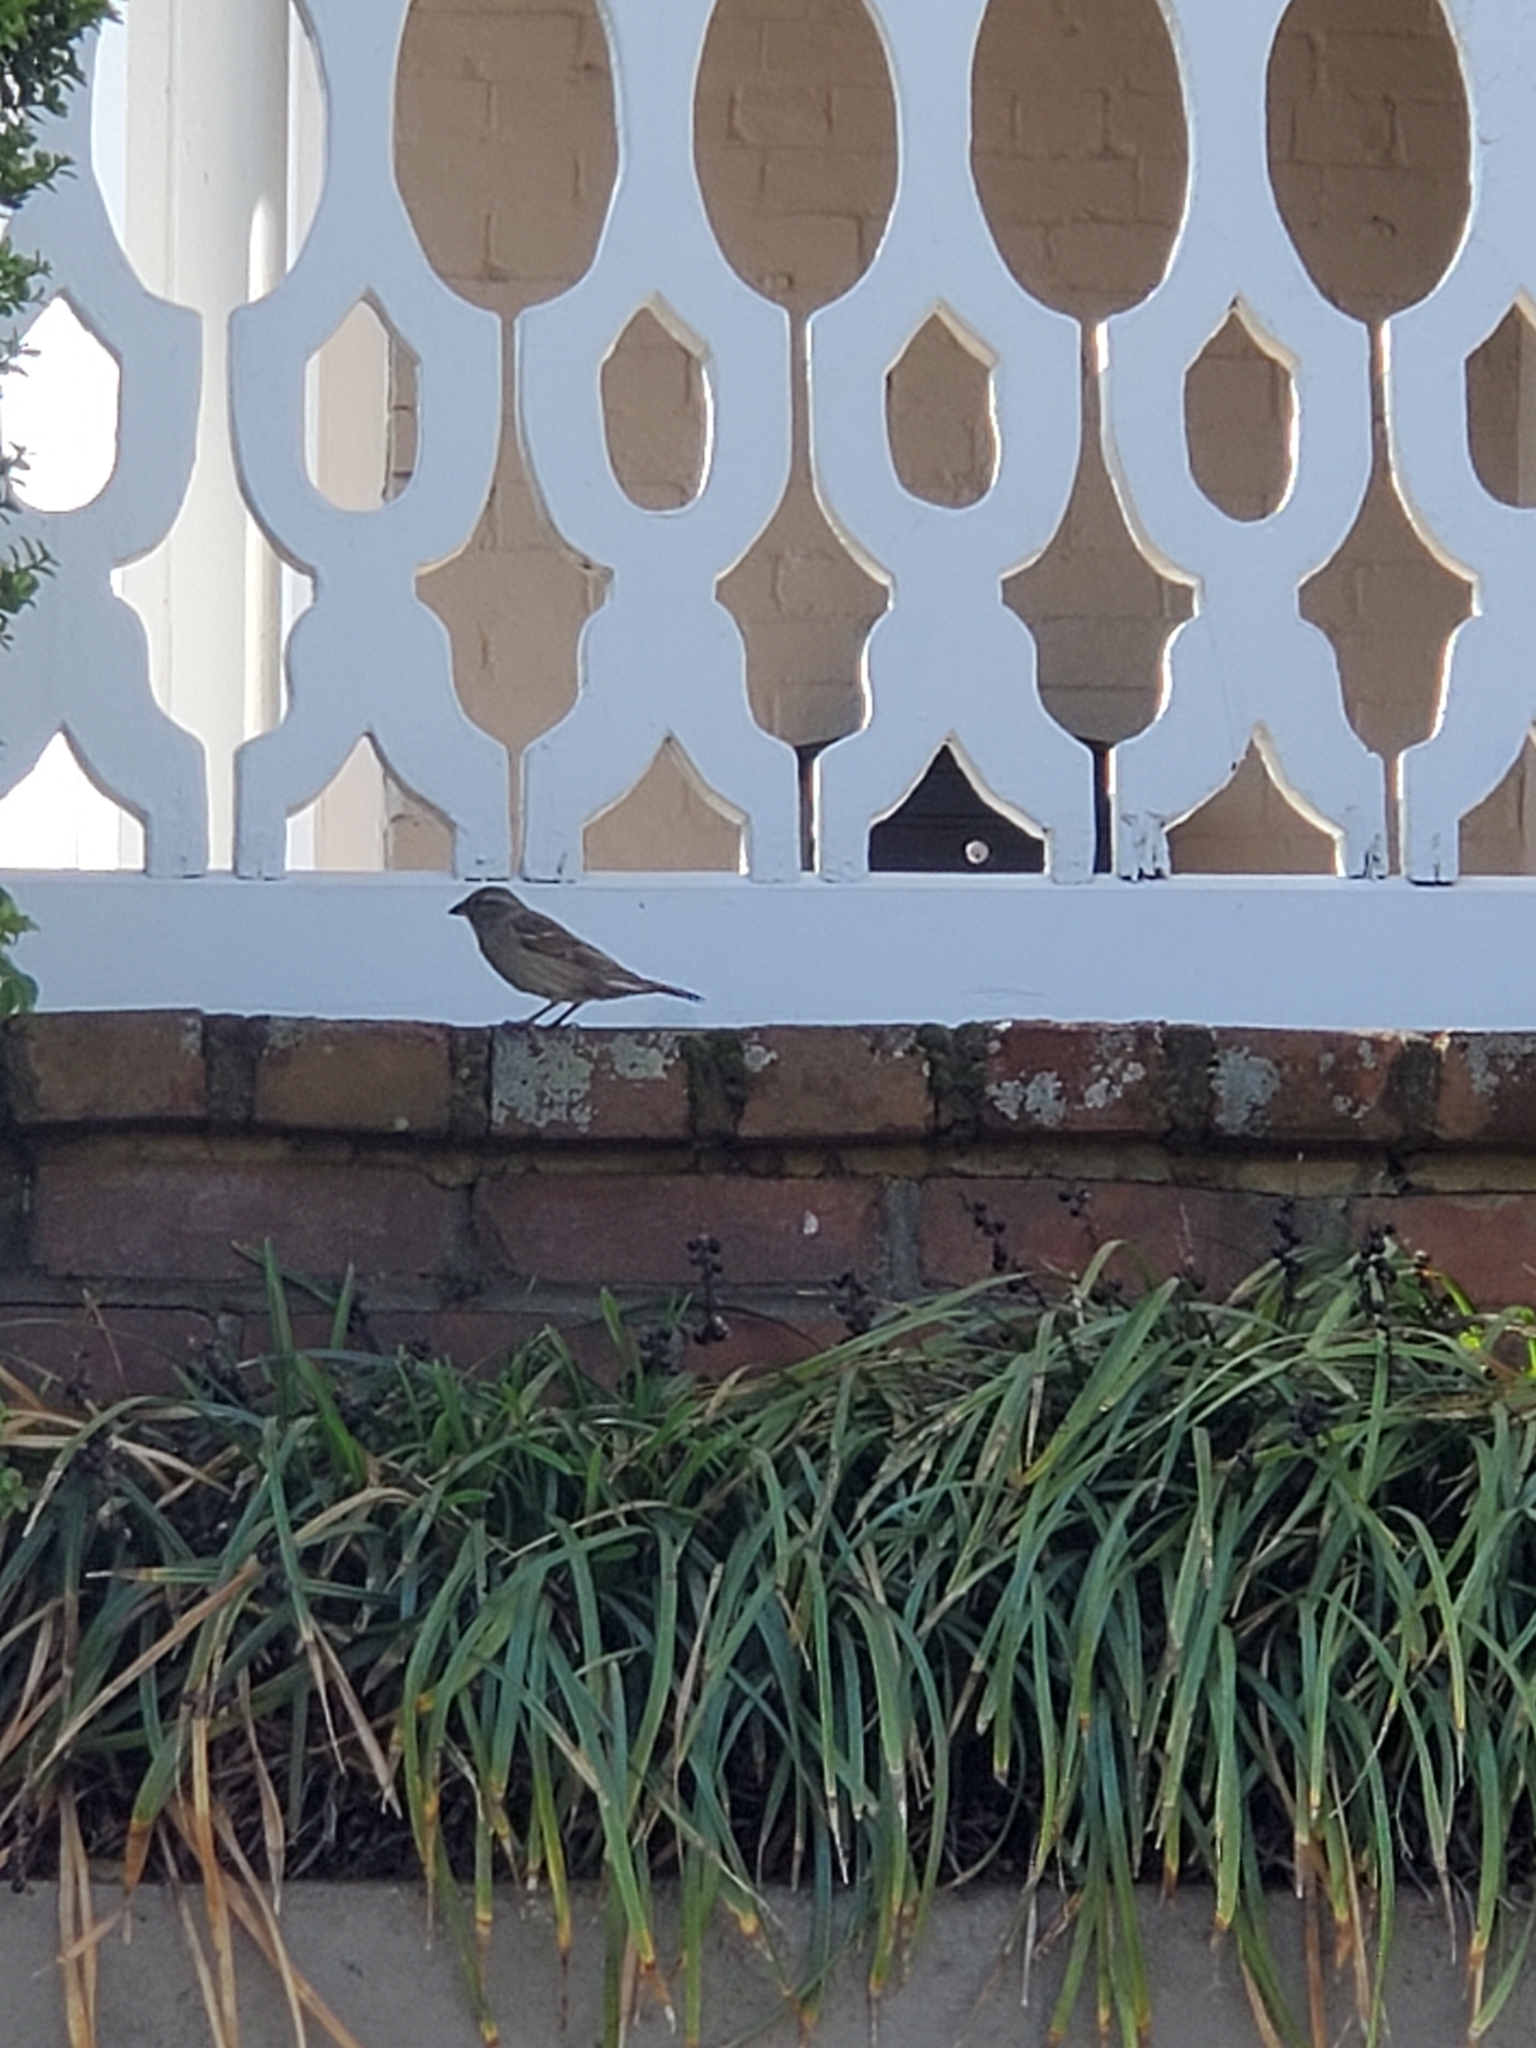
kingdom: Animalia
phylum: Chordata
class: Aves
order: Passeriformes
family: Passeridae
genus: Passer
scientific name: Passer domesticus
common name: House sparrow
